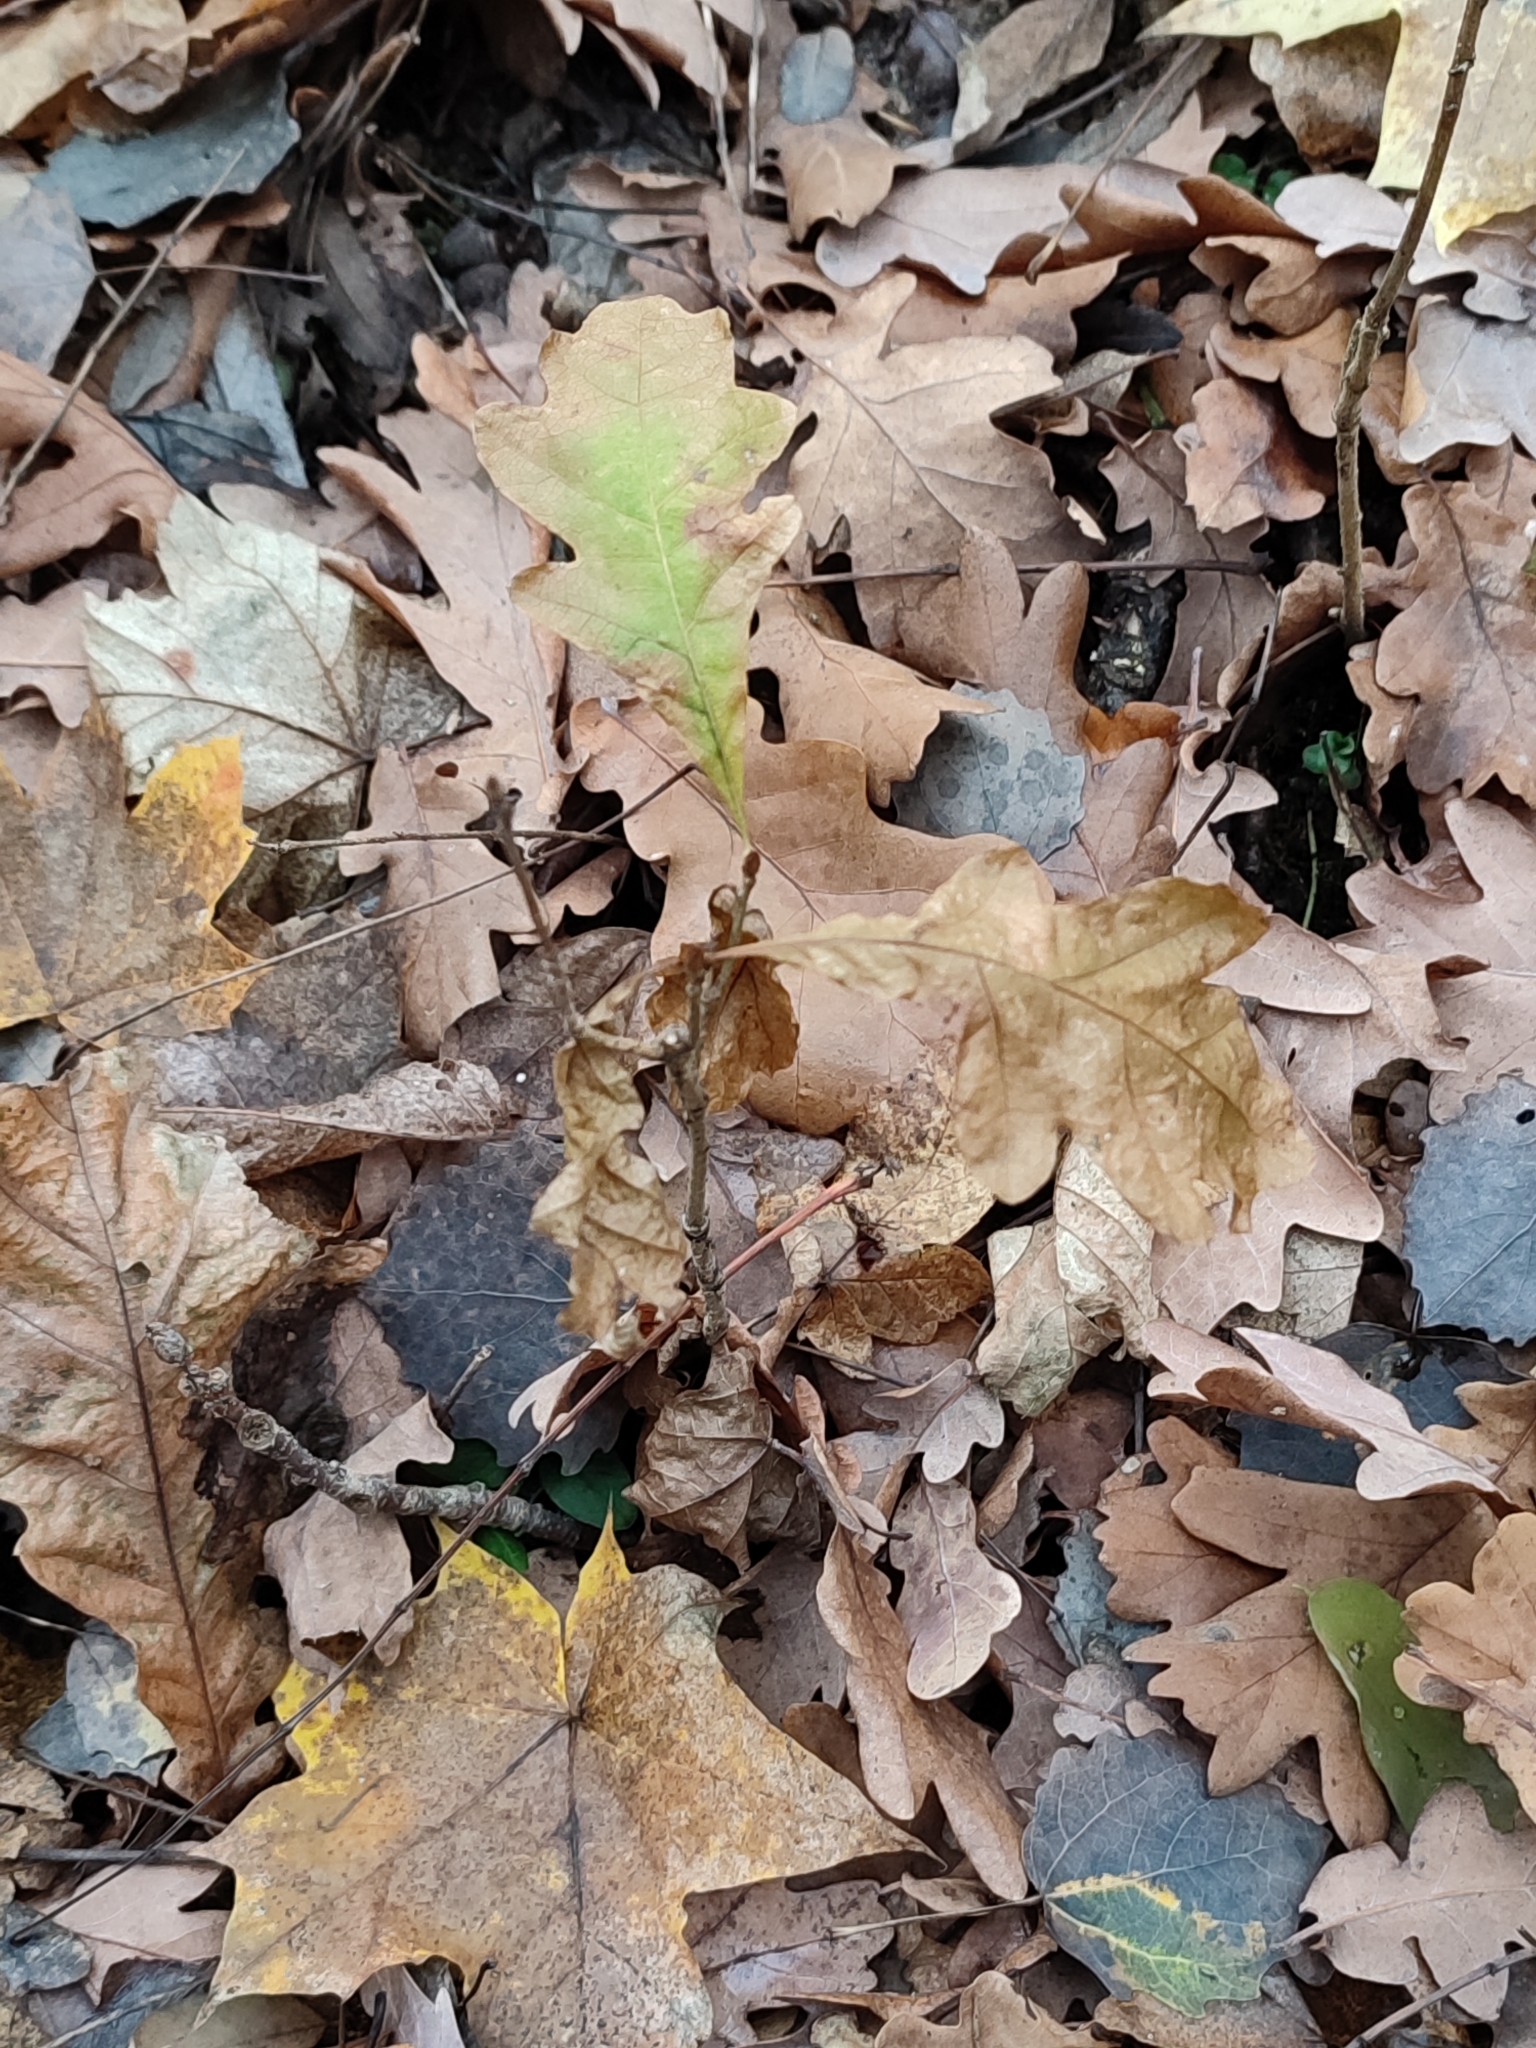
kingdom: Plantae
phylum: Tracheophyta
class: Magnoliopsida
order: Fagales
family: Fagaceae
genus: Quercus
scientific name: Quercus robur
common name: Pedunculate oak
